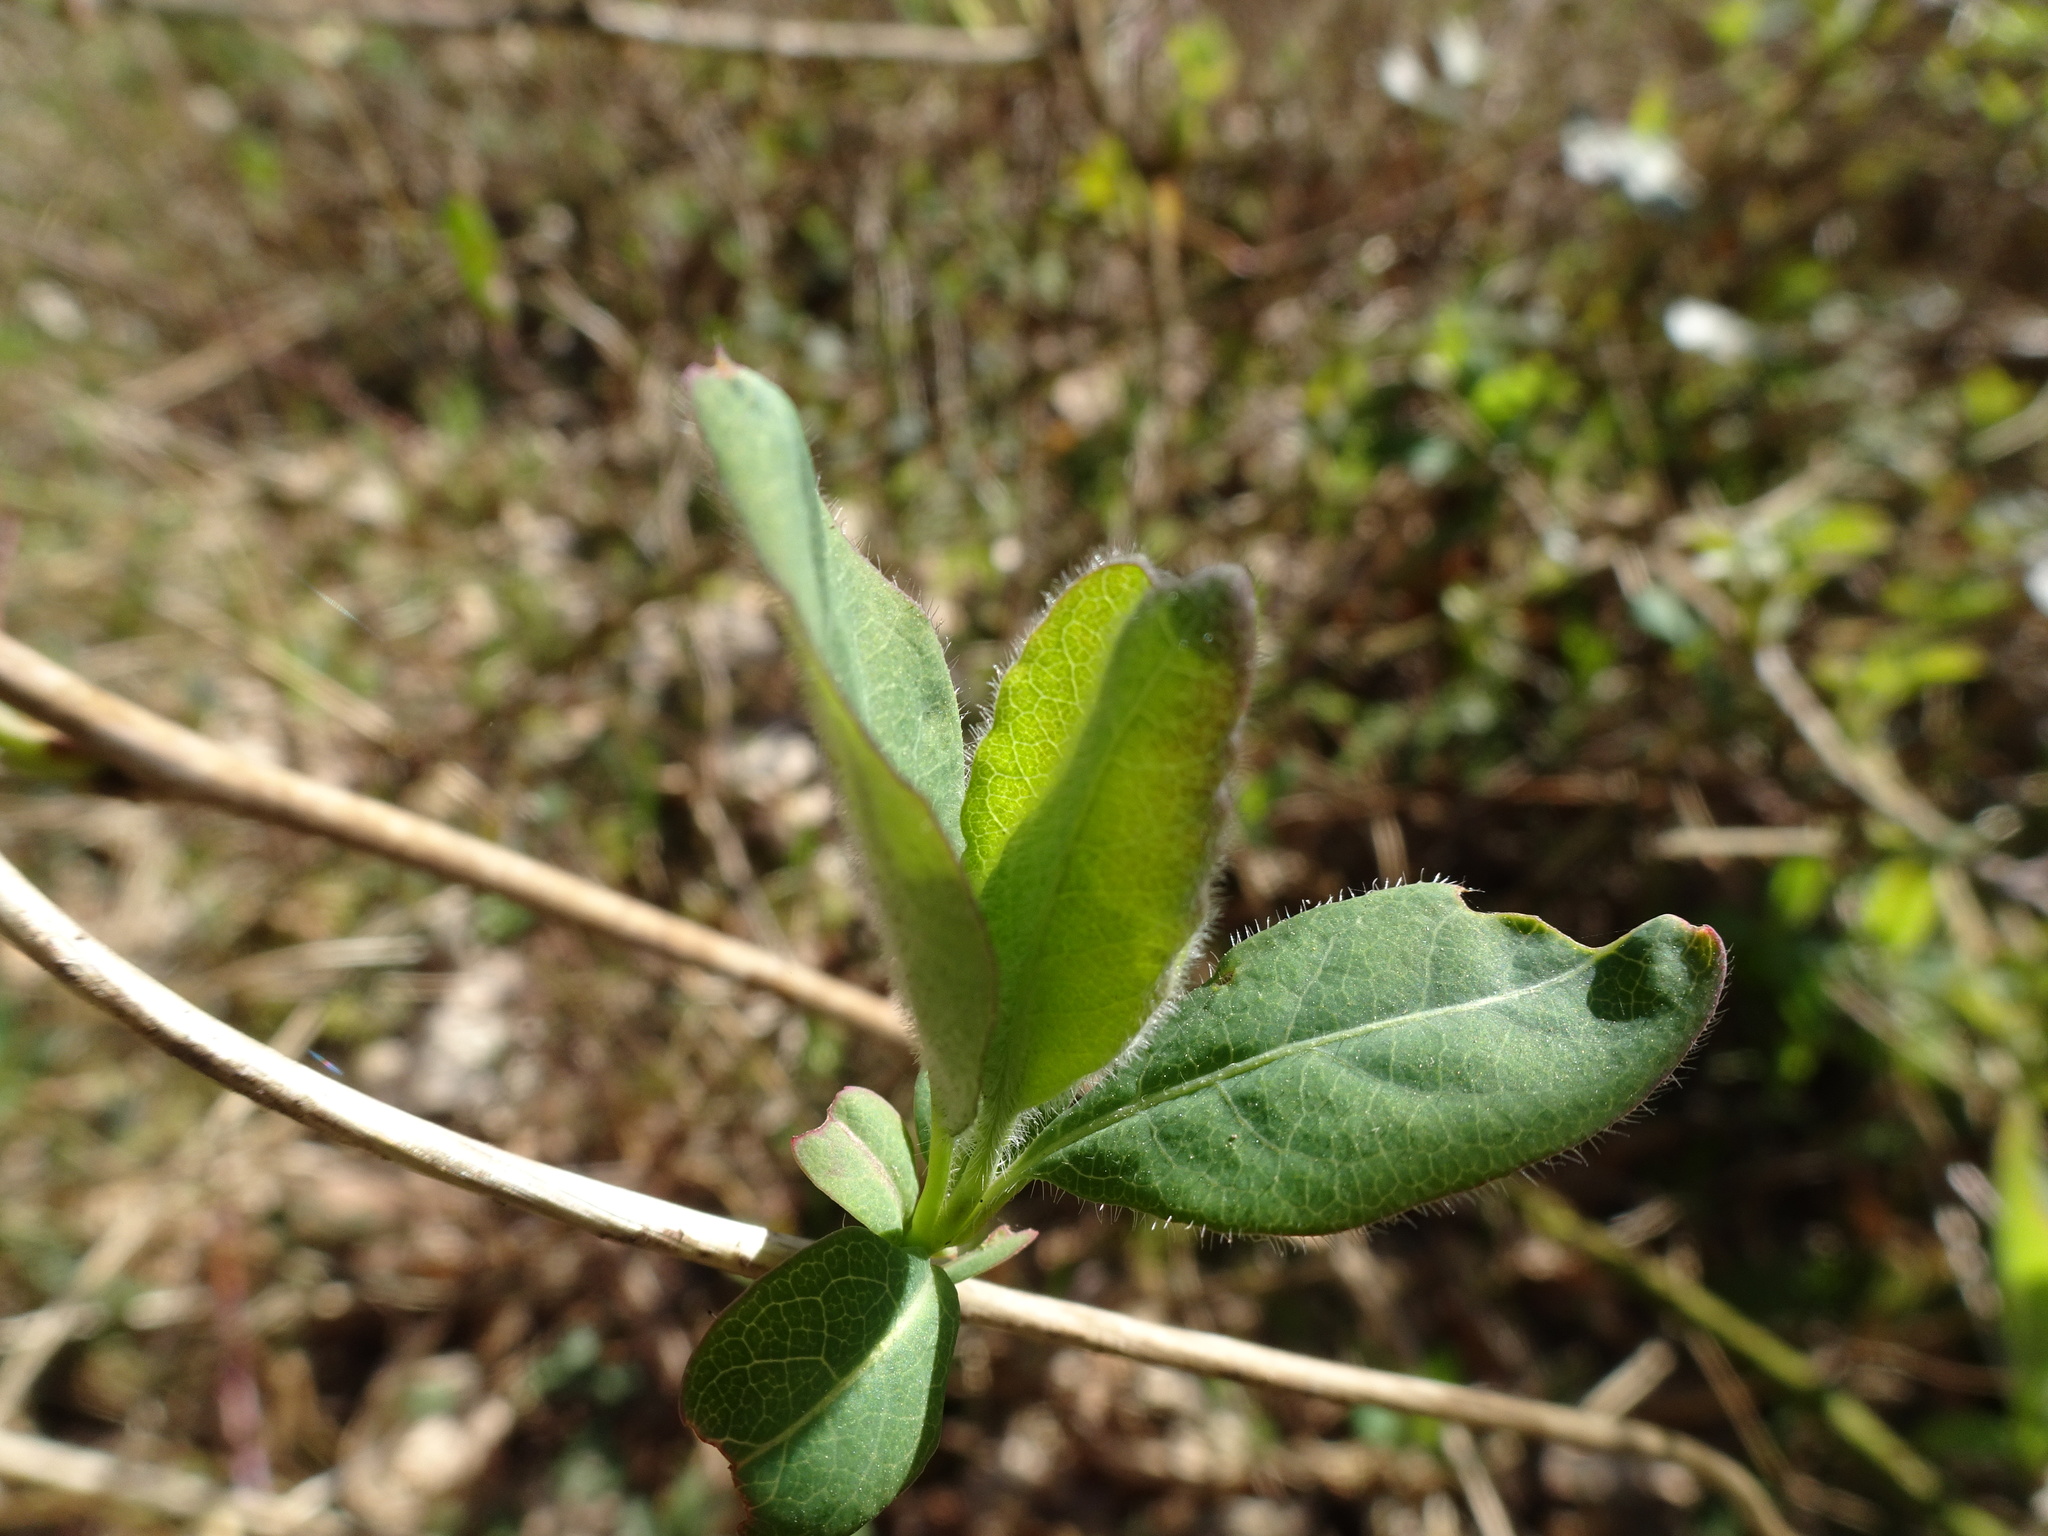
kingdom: Plantae
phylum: Tracheophyta
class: Magnoliopsida
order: Dipsacales
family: Caprifoliaceae
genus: Lonicera
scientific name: Lonicera periclymenum
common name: European honeysuckle
